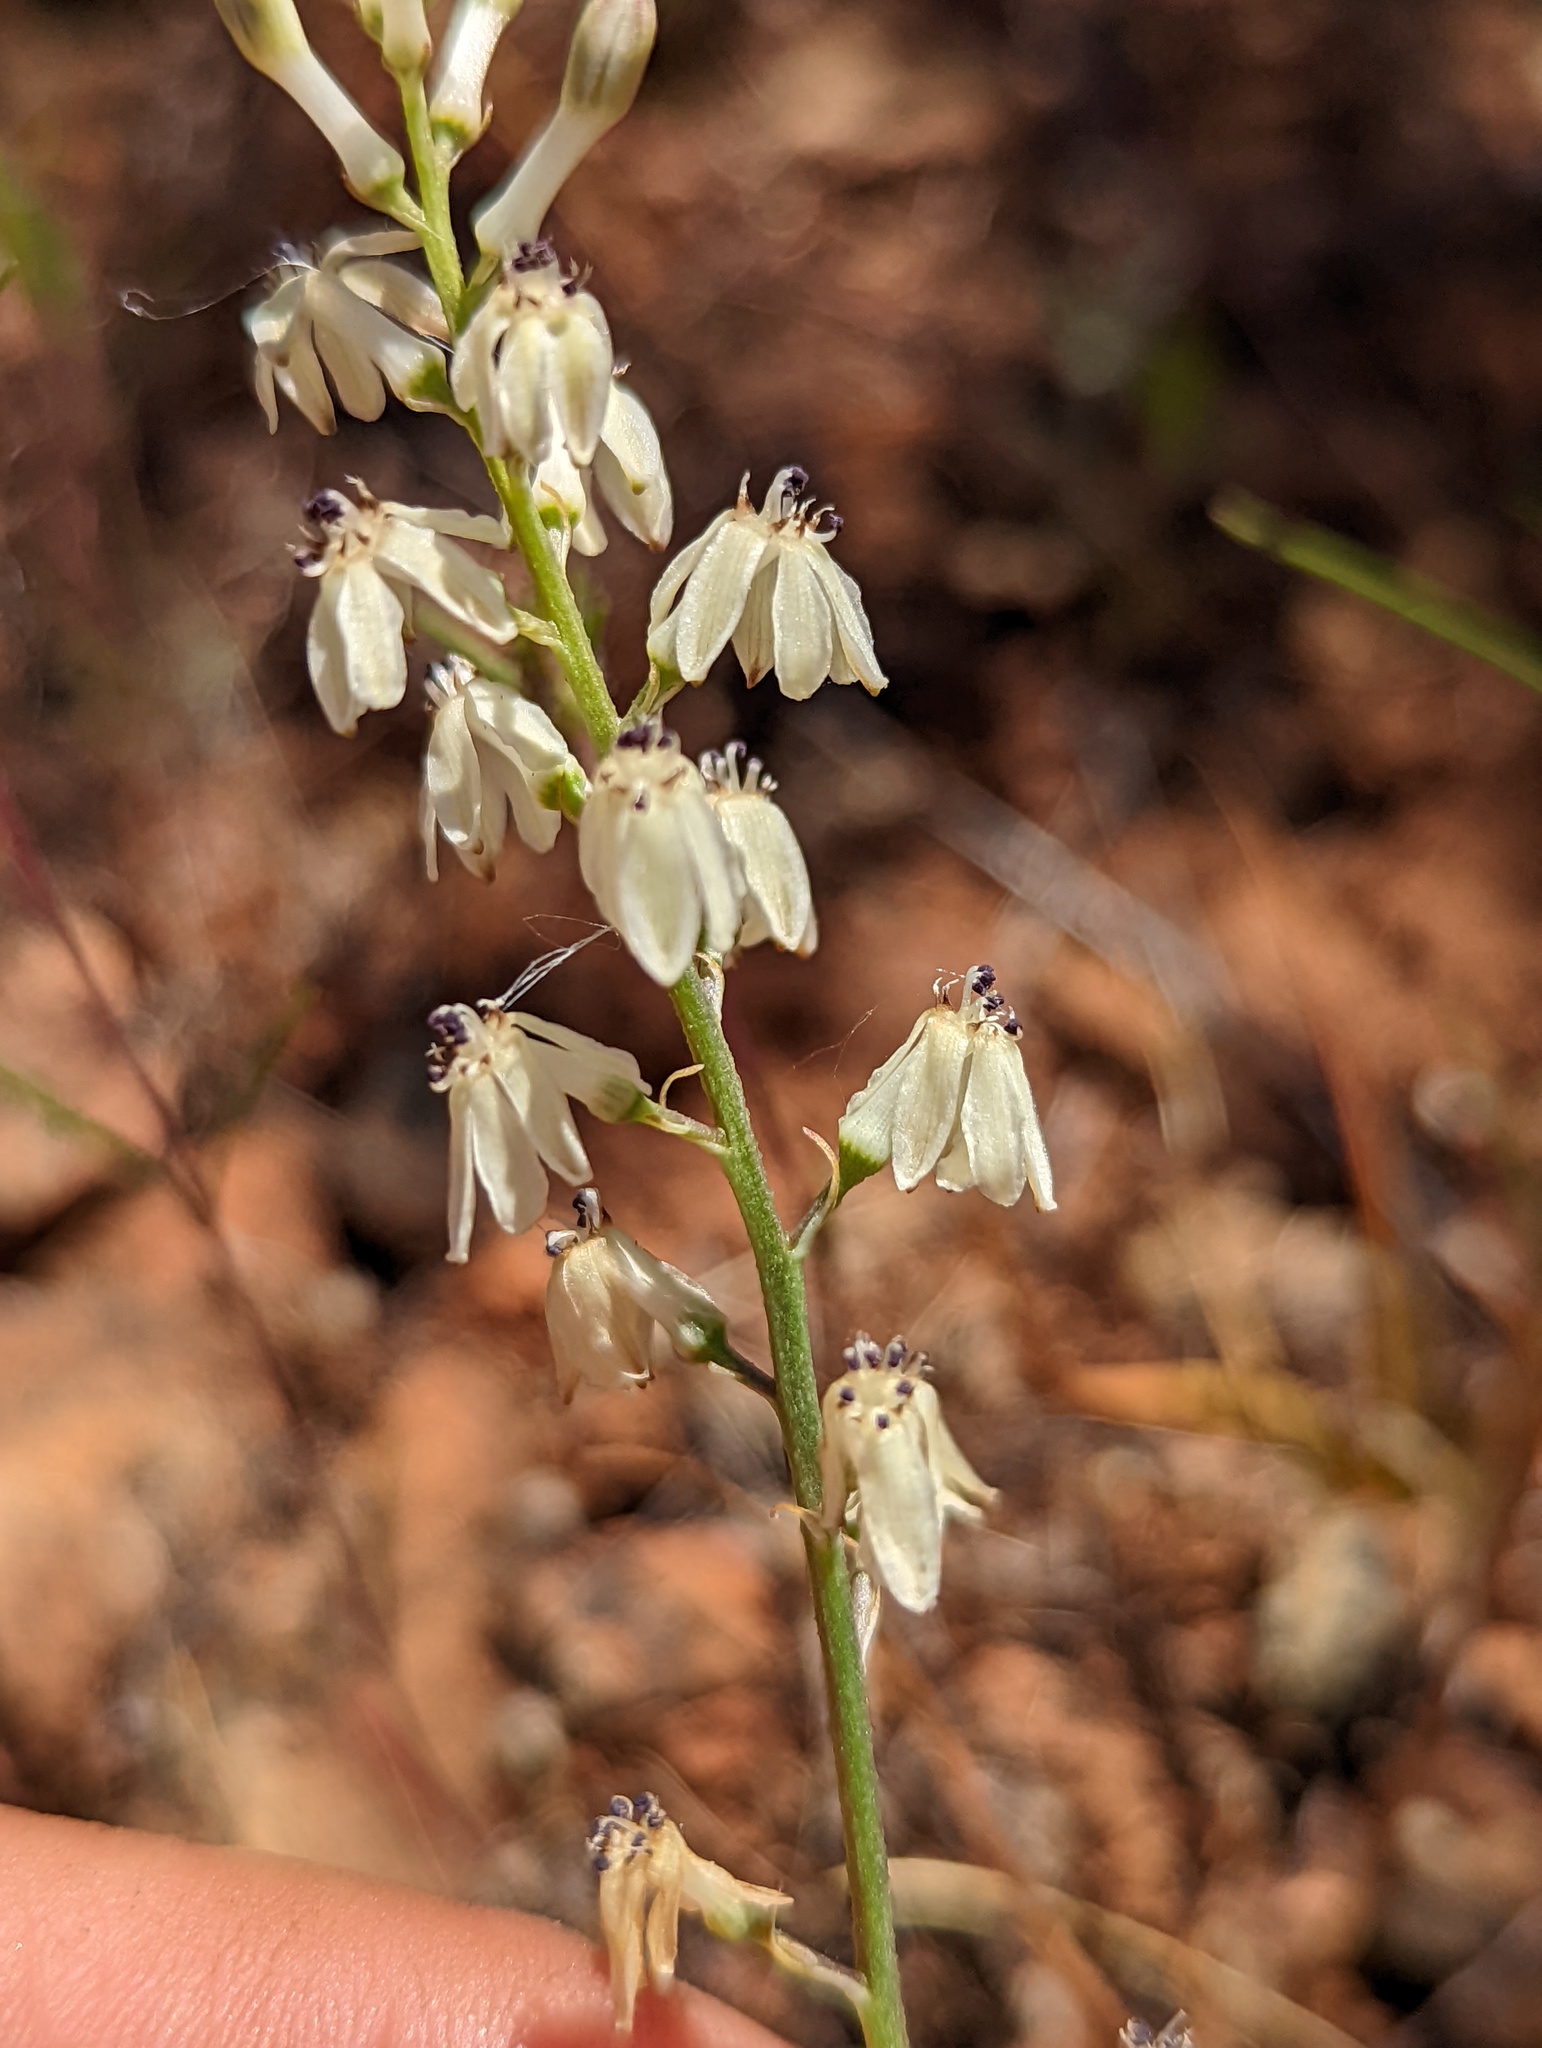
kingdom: Plantae
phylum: Tracheophyta
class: Liliopsida
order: Asparagales
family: Tecophilaeaceae
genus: Odontostomum
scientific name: Odontostomum hartwegii
